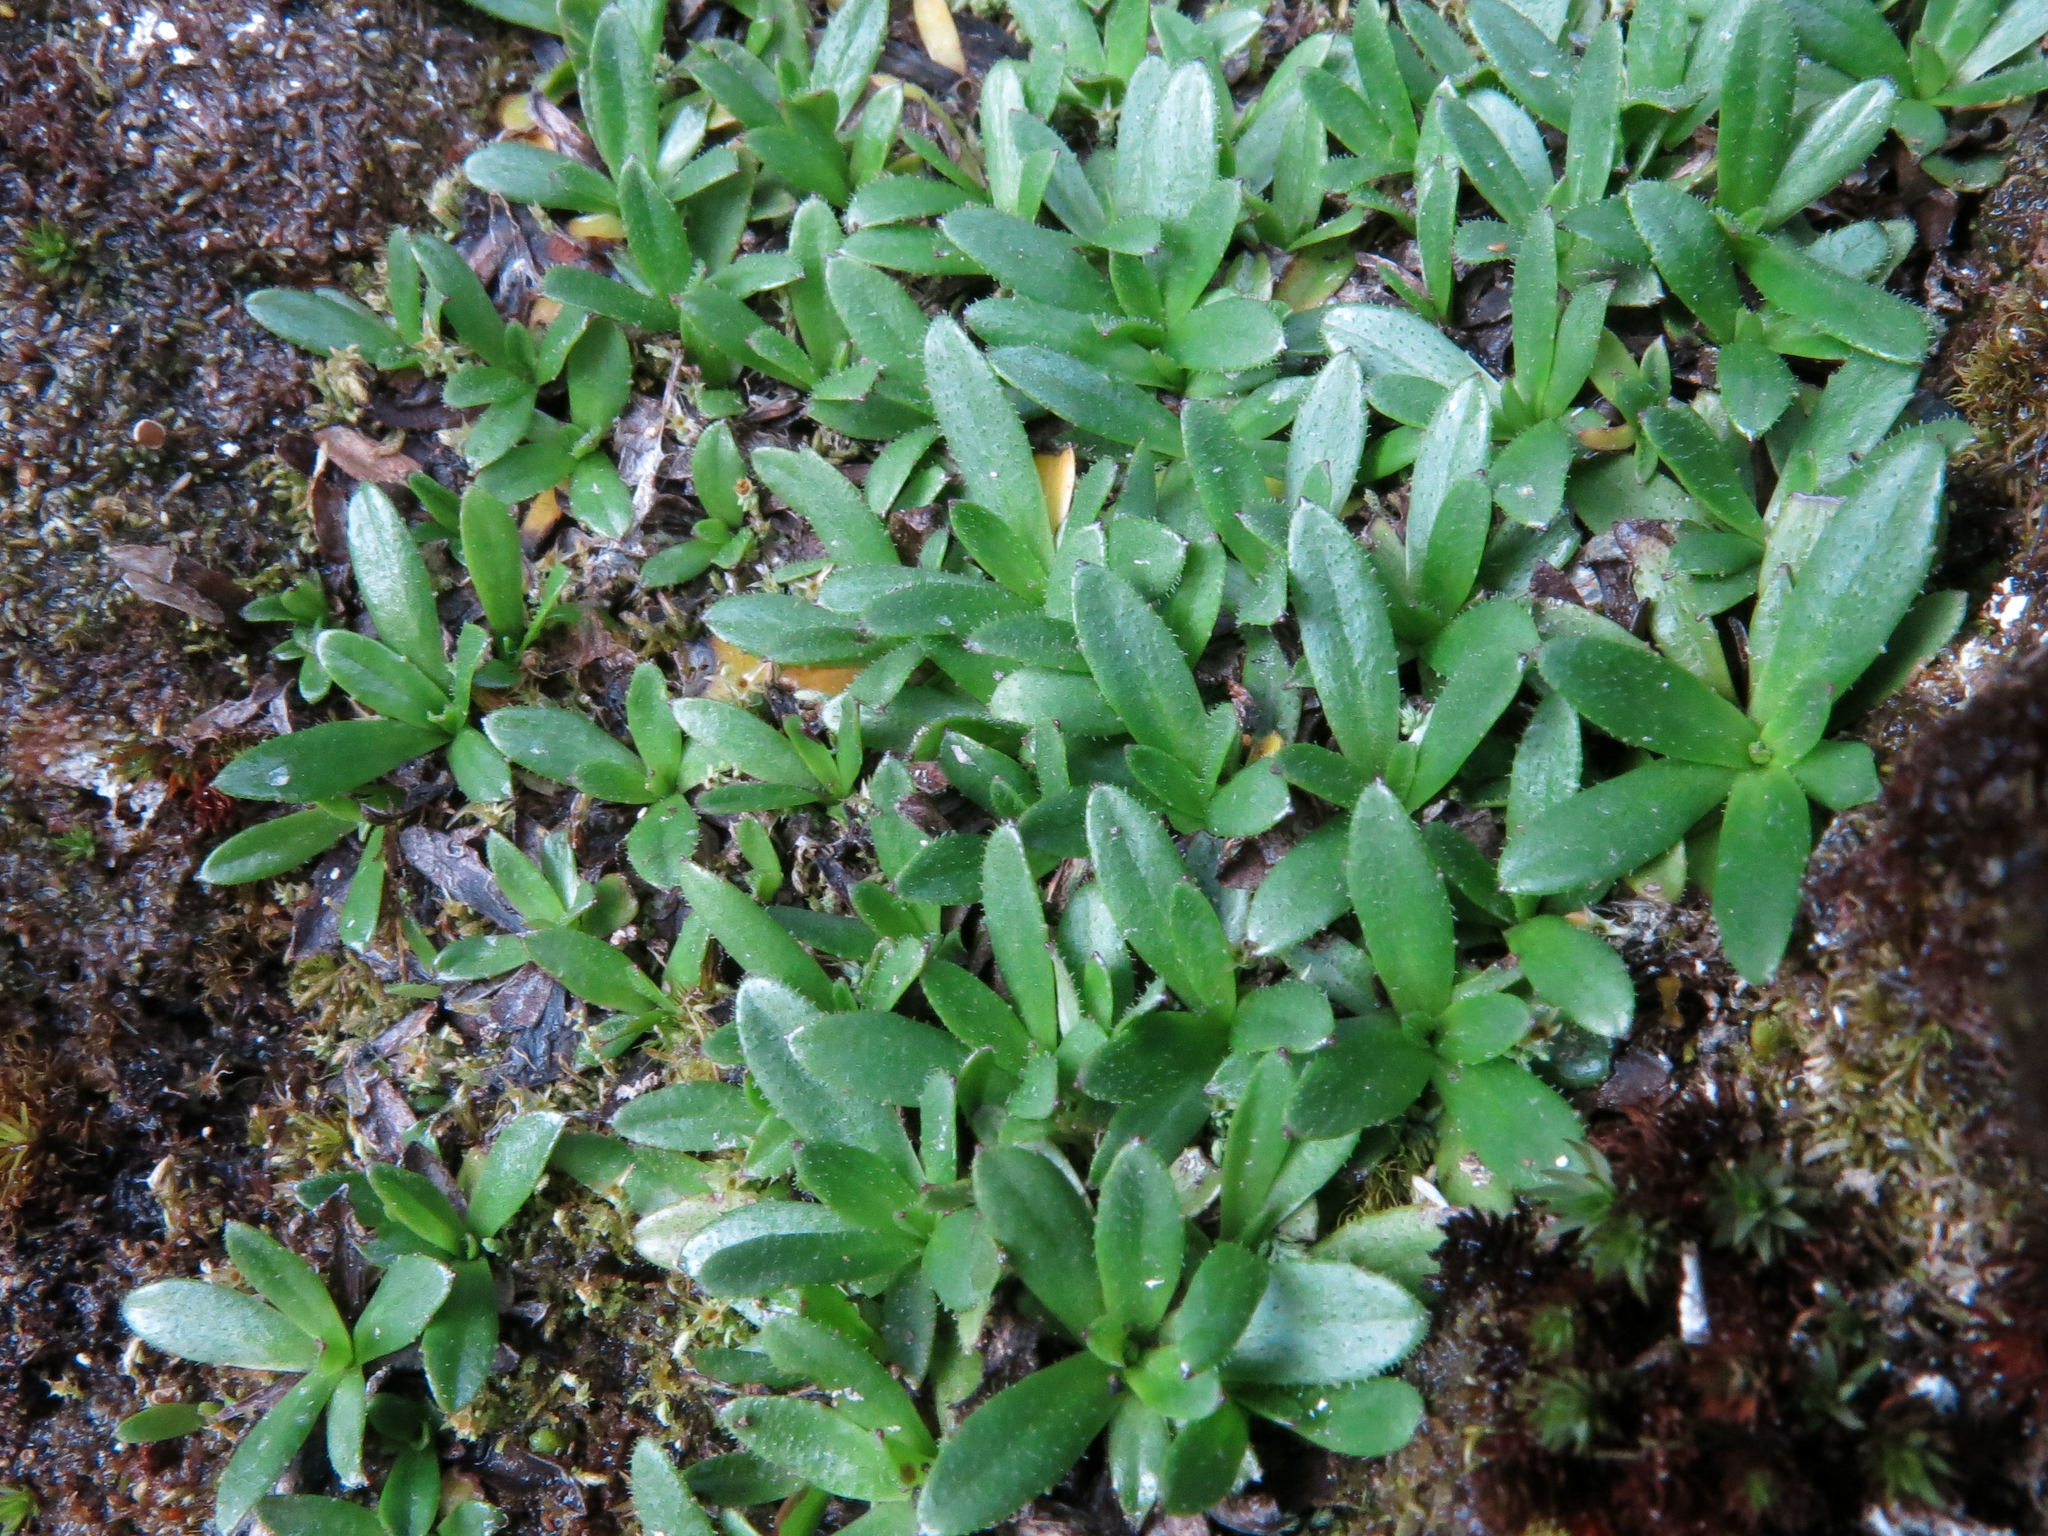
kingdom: Plantae
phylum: Tracheophyta
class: Magnoliopsida
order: Asterales
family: Asteraceae
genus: Celmisia
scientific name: Celmisia thomsonii
